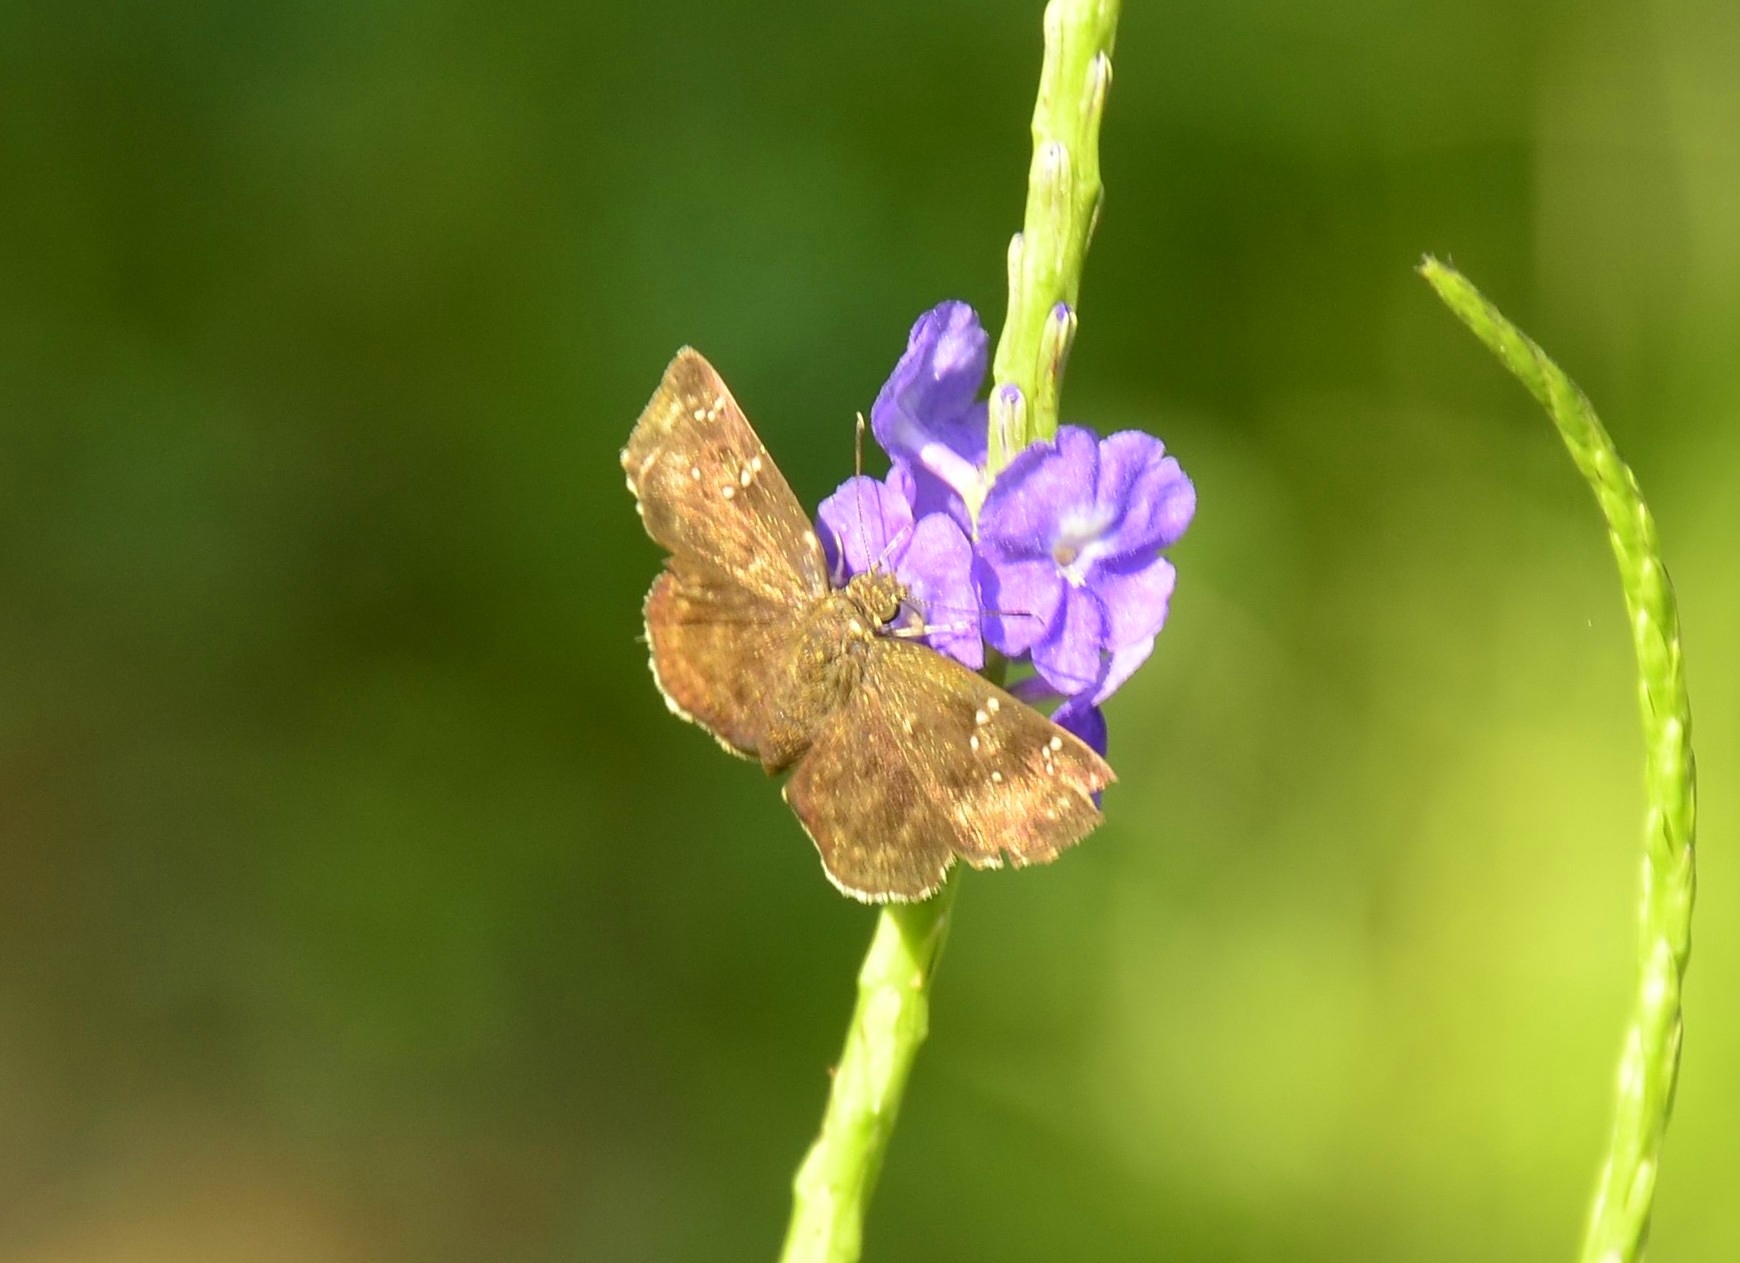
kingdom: Animalia
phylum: Arthropoda
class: Insecta
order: Lepidoptera
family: Hesperiidae
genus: Sarangesa
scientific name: Sarangesa dasahara
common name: Common small flat
